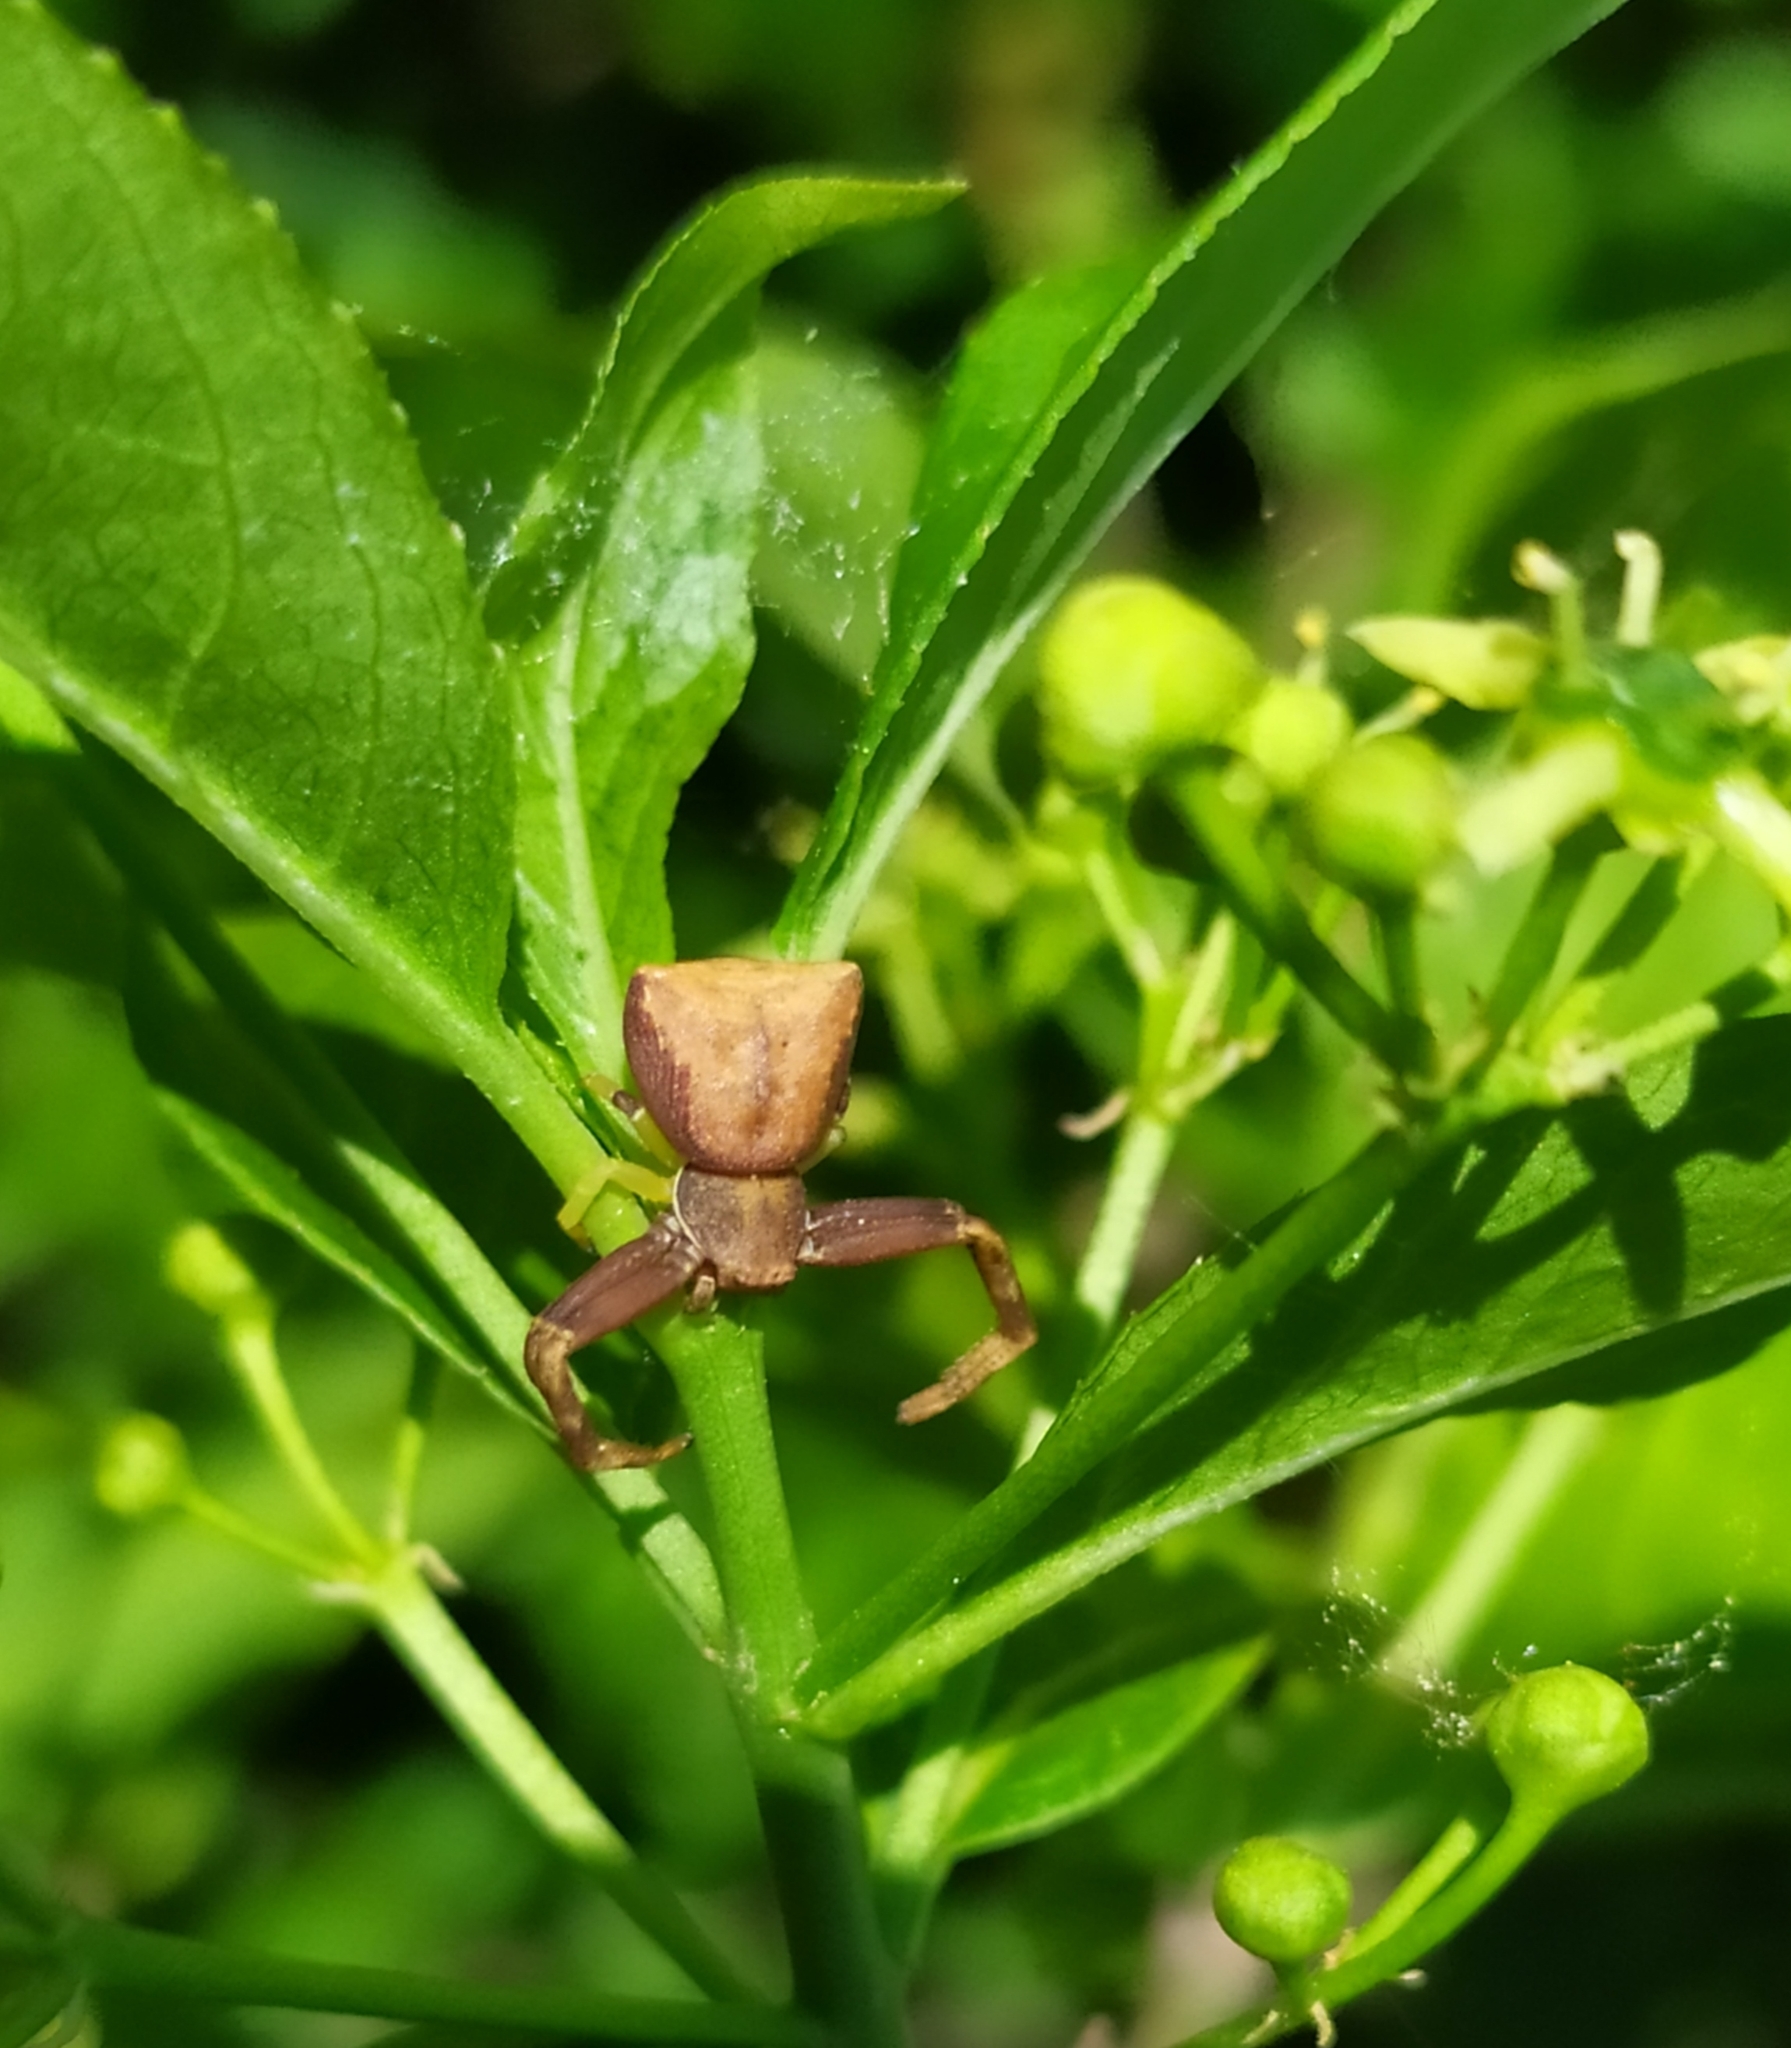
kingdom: Animalia
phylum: Arthropoda
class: Arachnida
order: Araneae
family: Thomisidae
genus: Pistius
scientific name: Pistius truncatus
